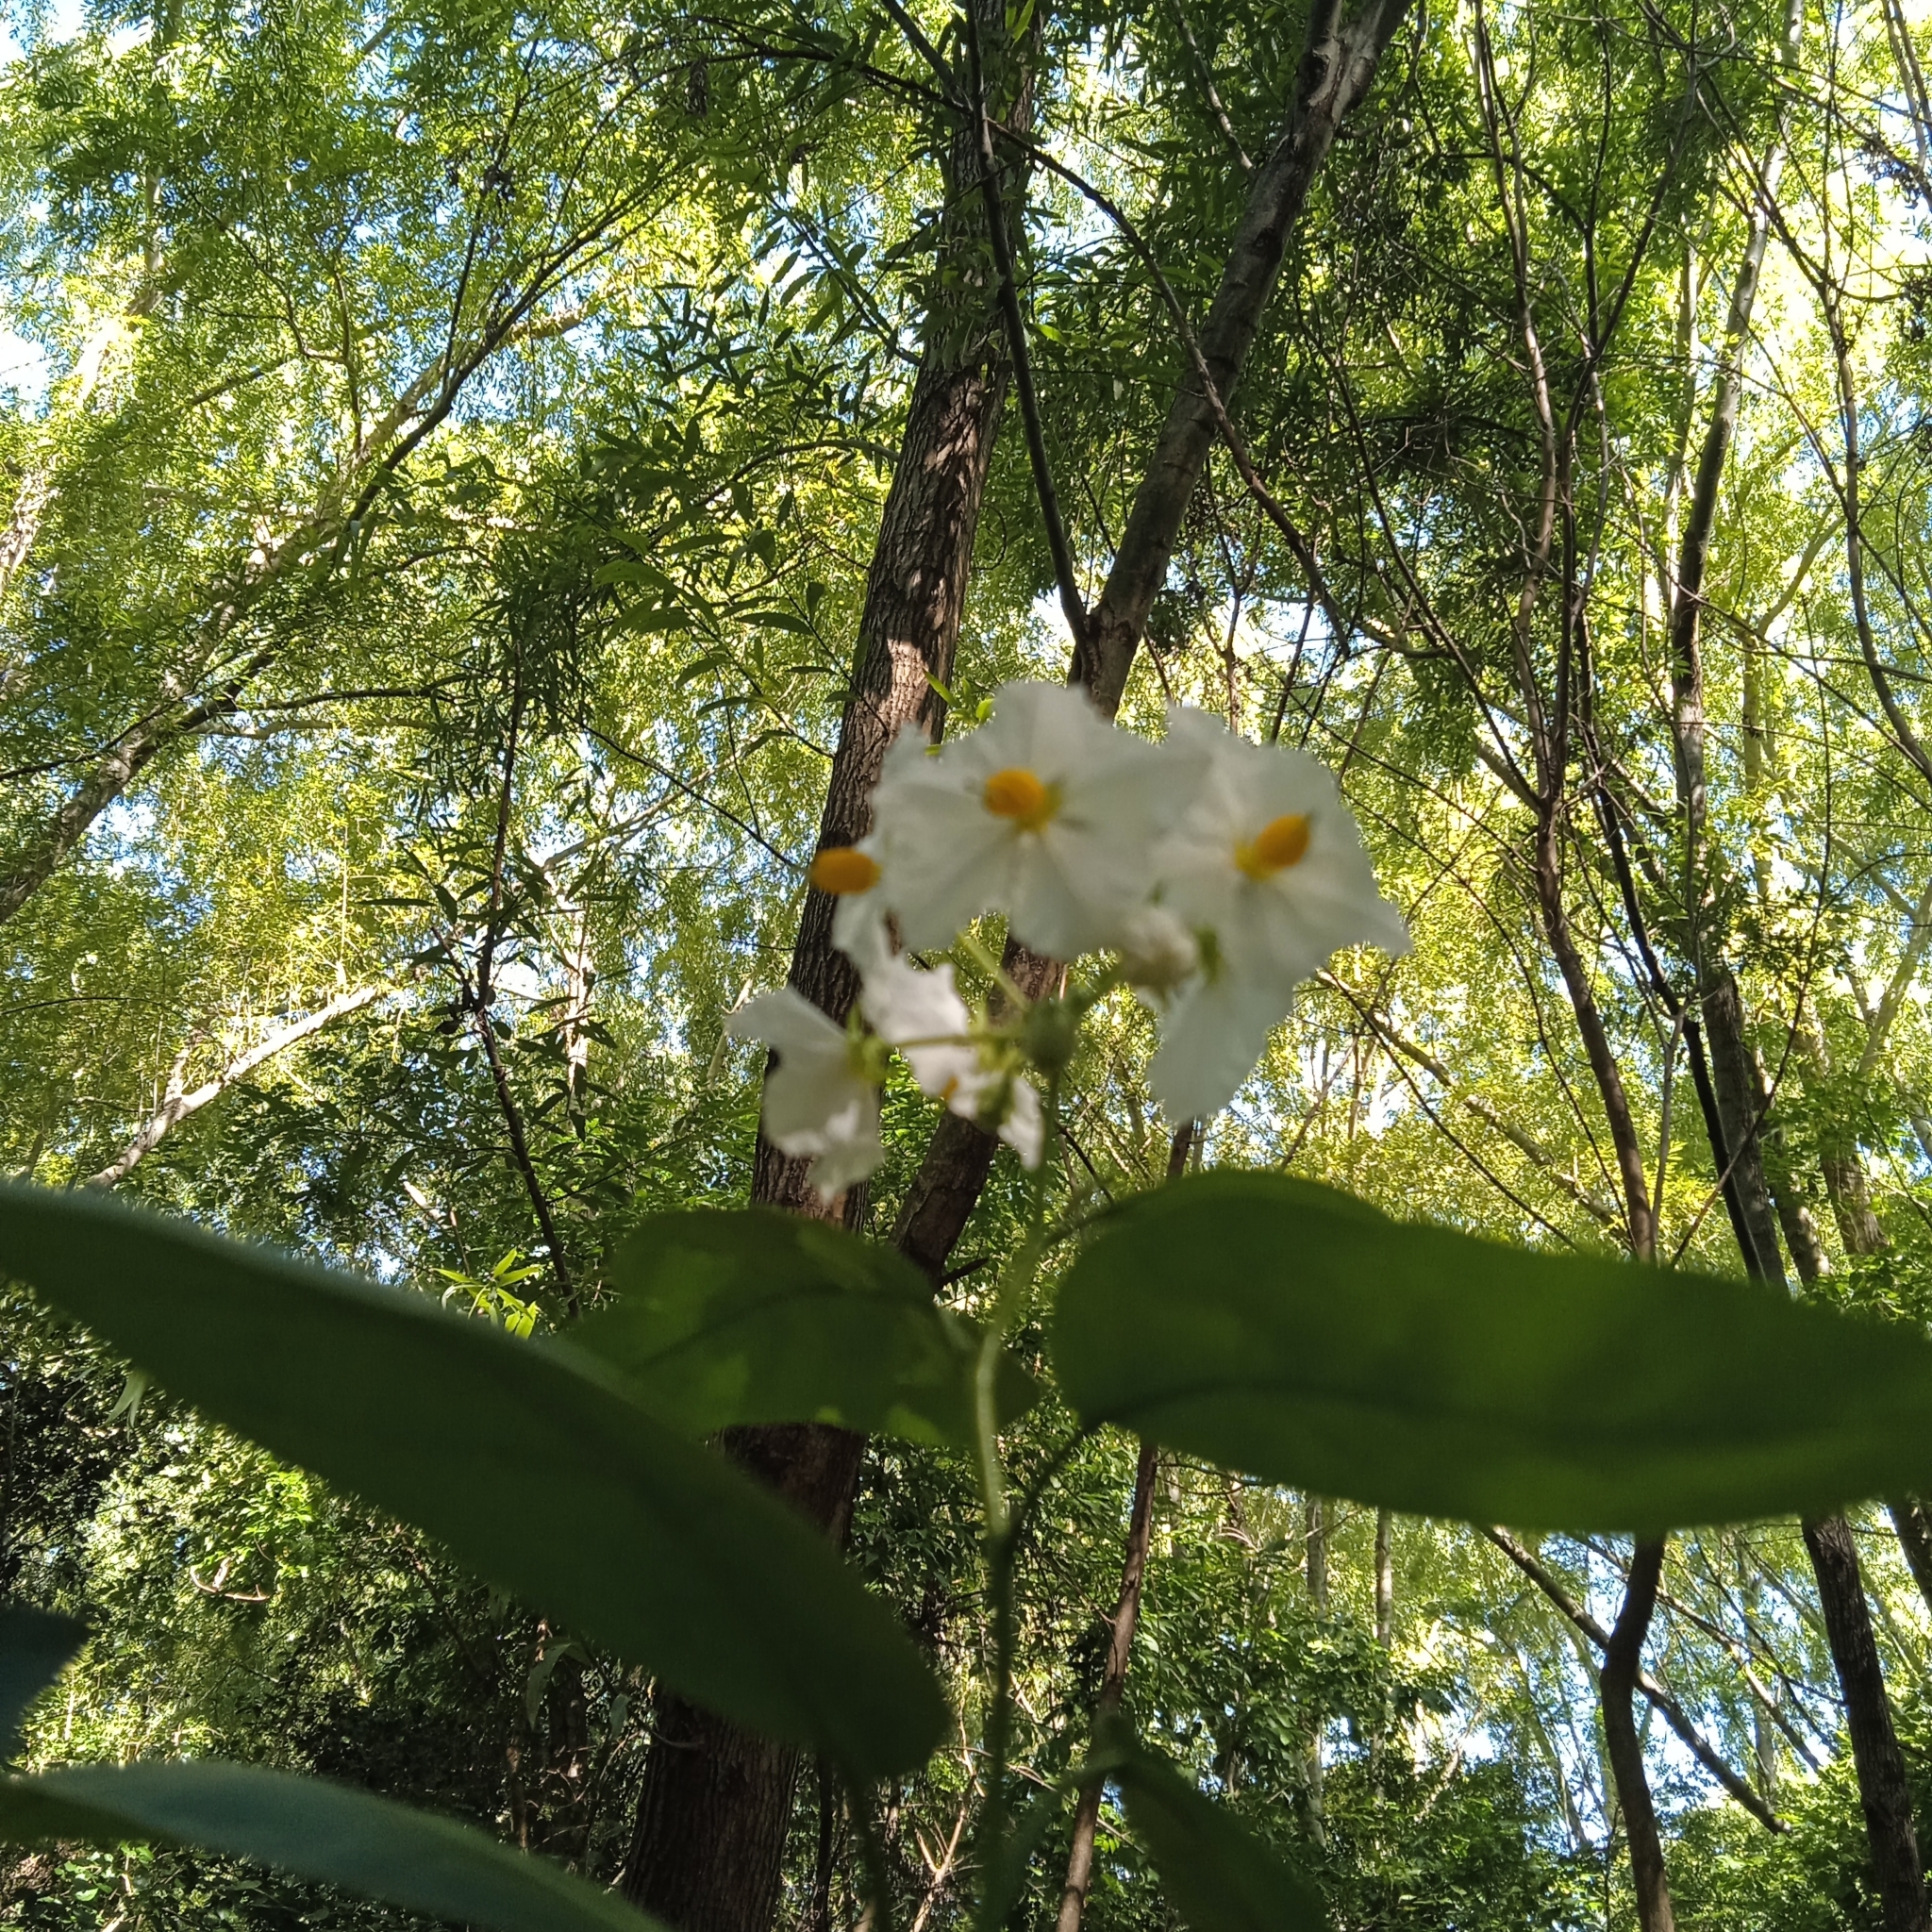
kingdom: Plantae
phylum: Tracheophyta
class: Magnoliopsida
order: Solanales
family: Solanaceae
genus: Solanum
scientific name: Solanum bonariense
